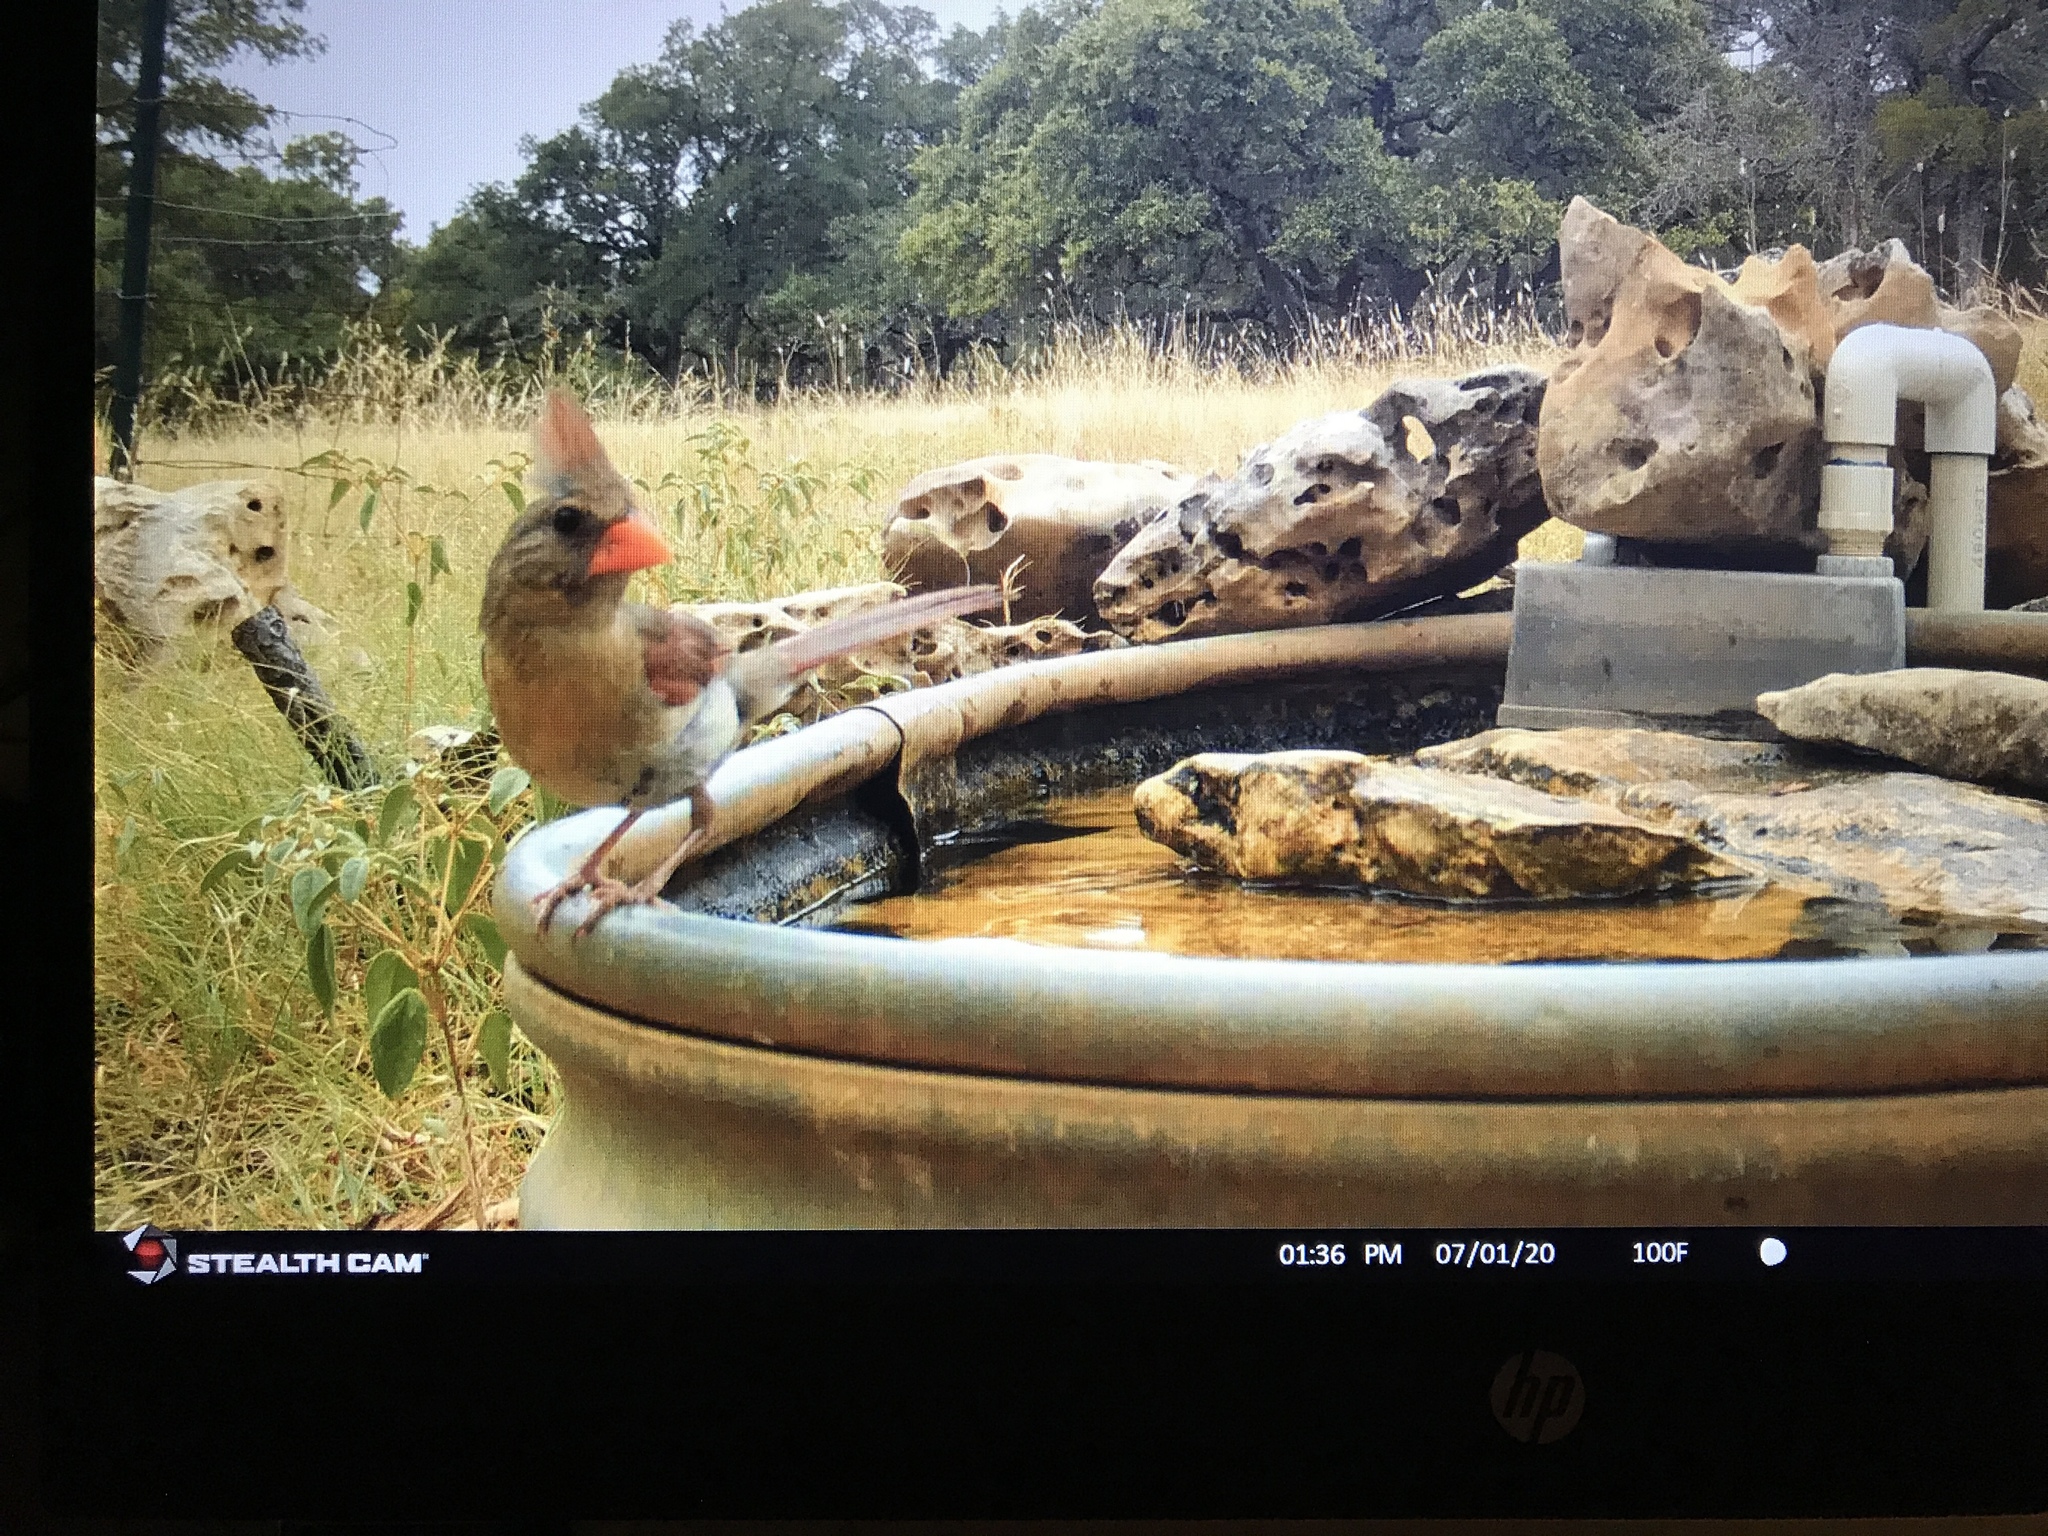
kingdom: Animalia
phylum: Chordata
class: Aves
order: Passeriformes
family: Cardinalidae
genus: Cardinalis
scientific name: Cardinalis cardinalis
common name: Northern cardinal
